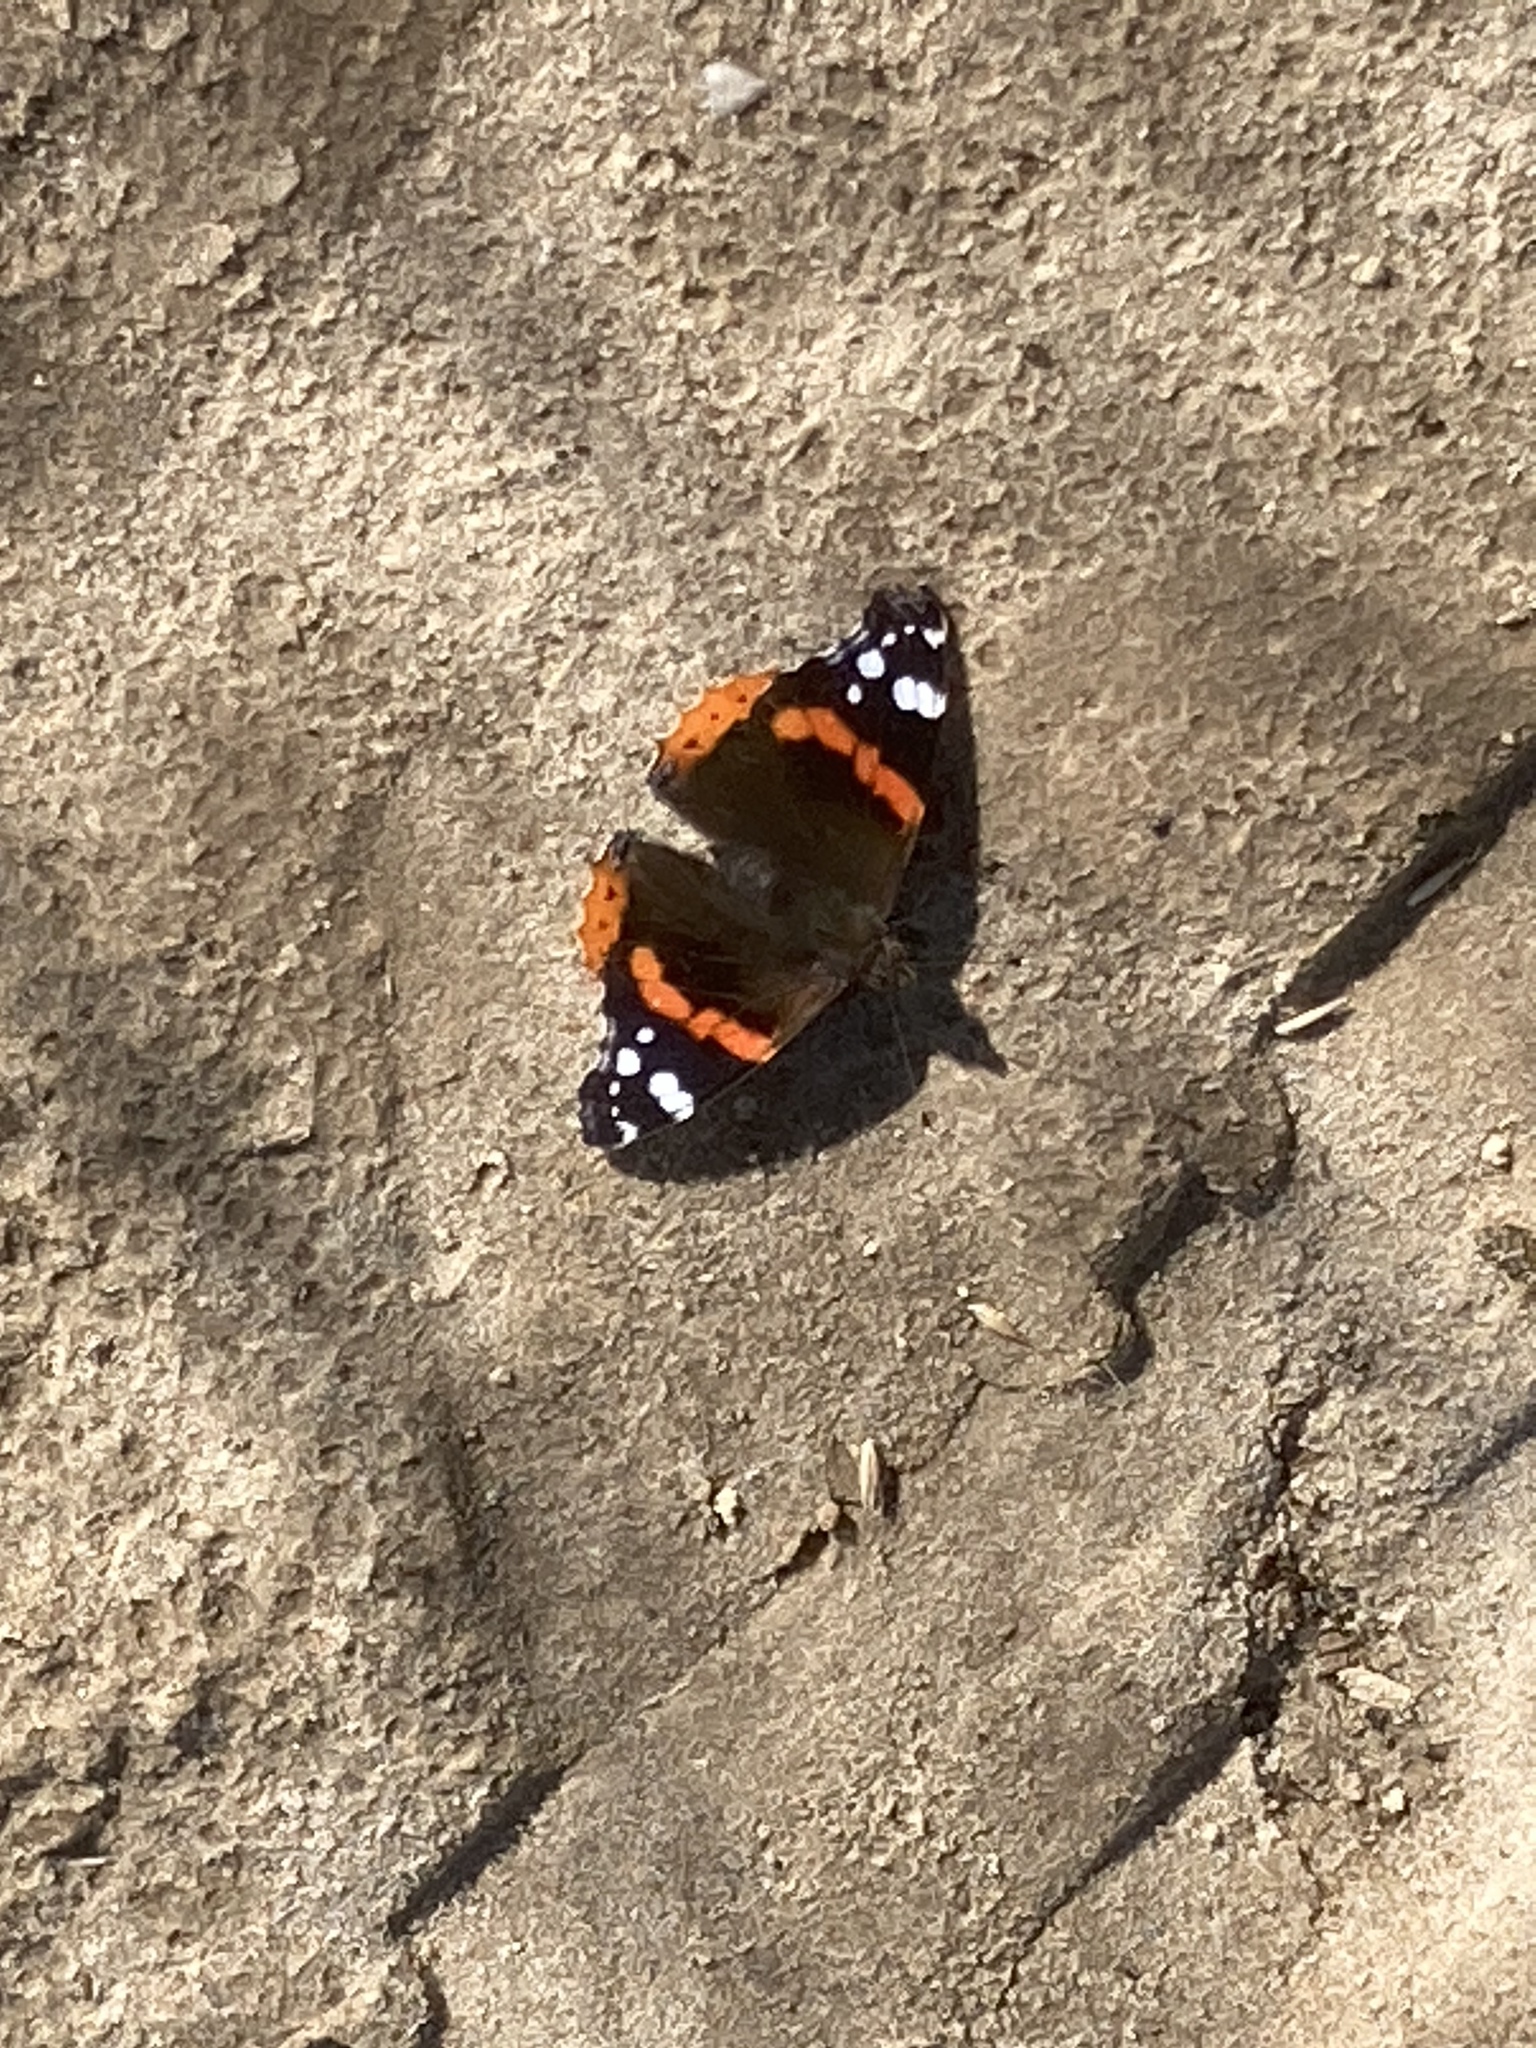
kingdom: Animalia
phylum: Arthropoda
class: Insecta
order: Lepidoptera
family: Nymphalidae
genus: Vanessa
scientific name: Vanessa atalanta
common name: Red admiral
